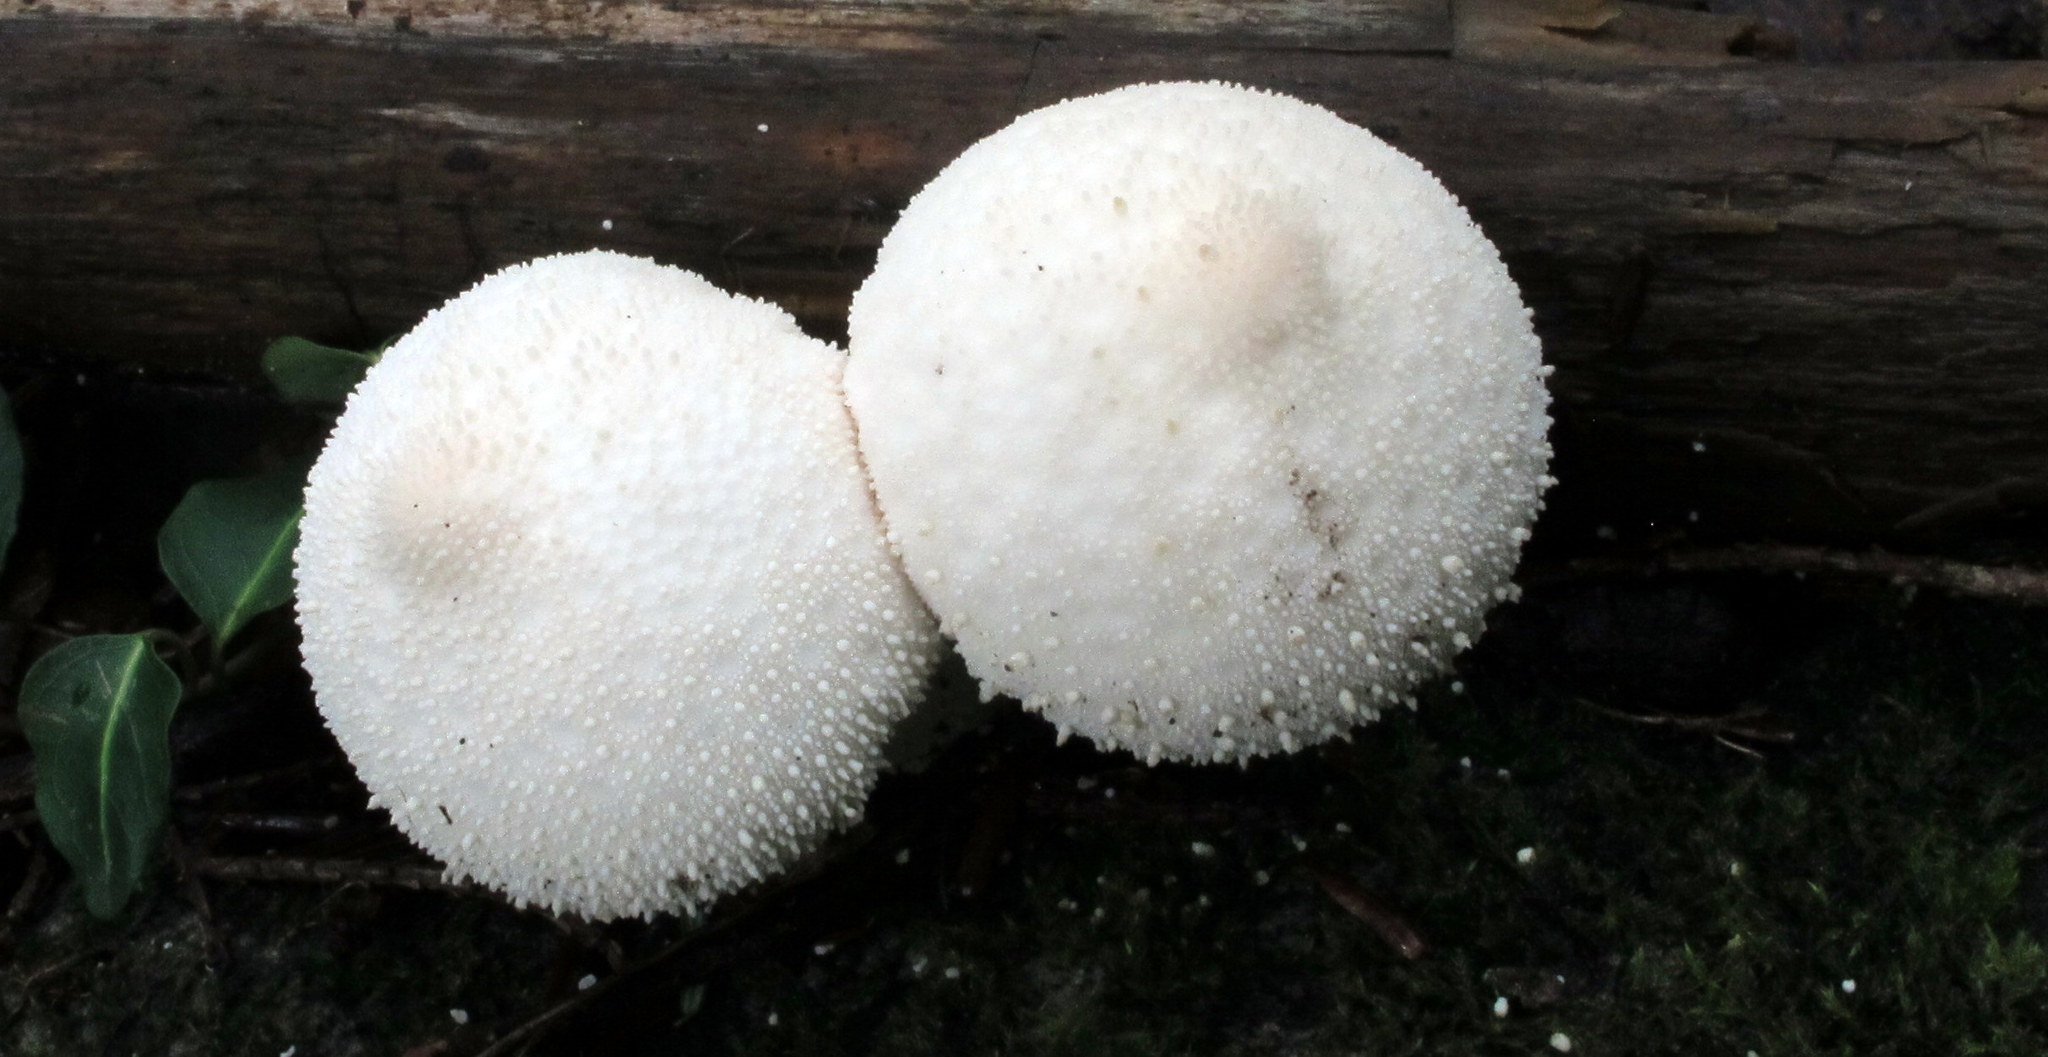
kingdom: Fungi
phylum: Basidiomycota
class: Agaricomycetes
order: Agaricales
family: Lycoperdaceae
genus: Lycoperdon
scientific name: Lycoperdon perlatum
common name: Common puffball
